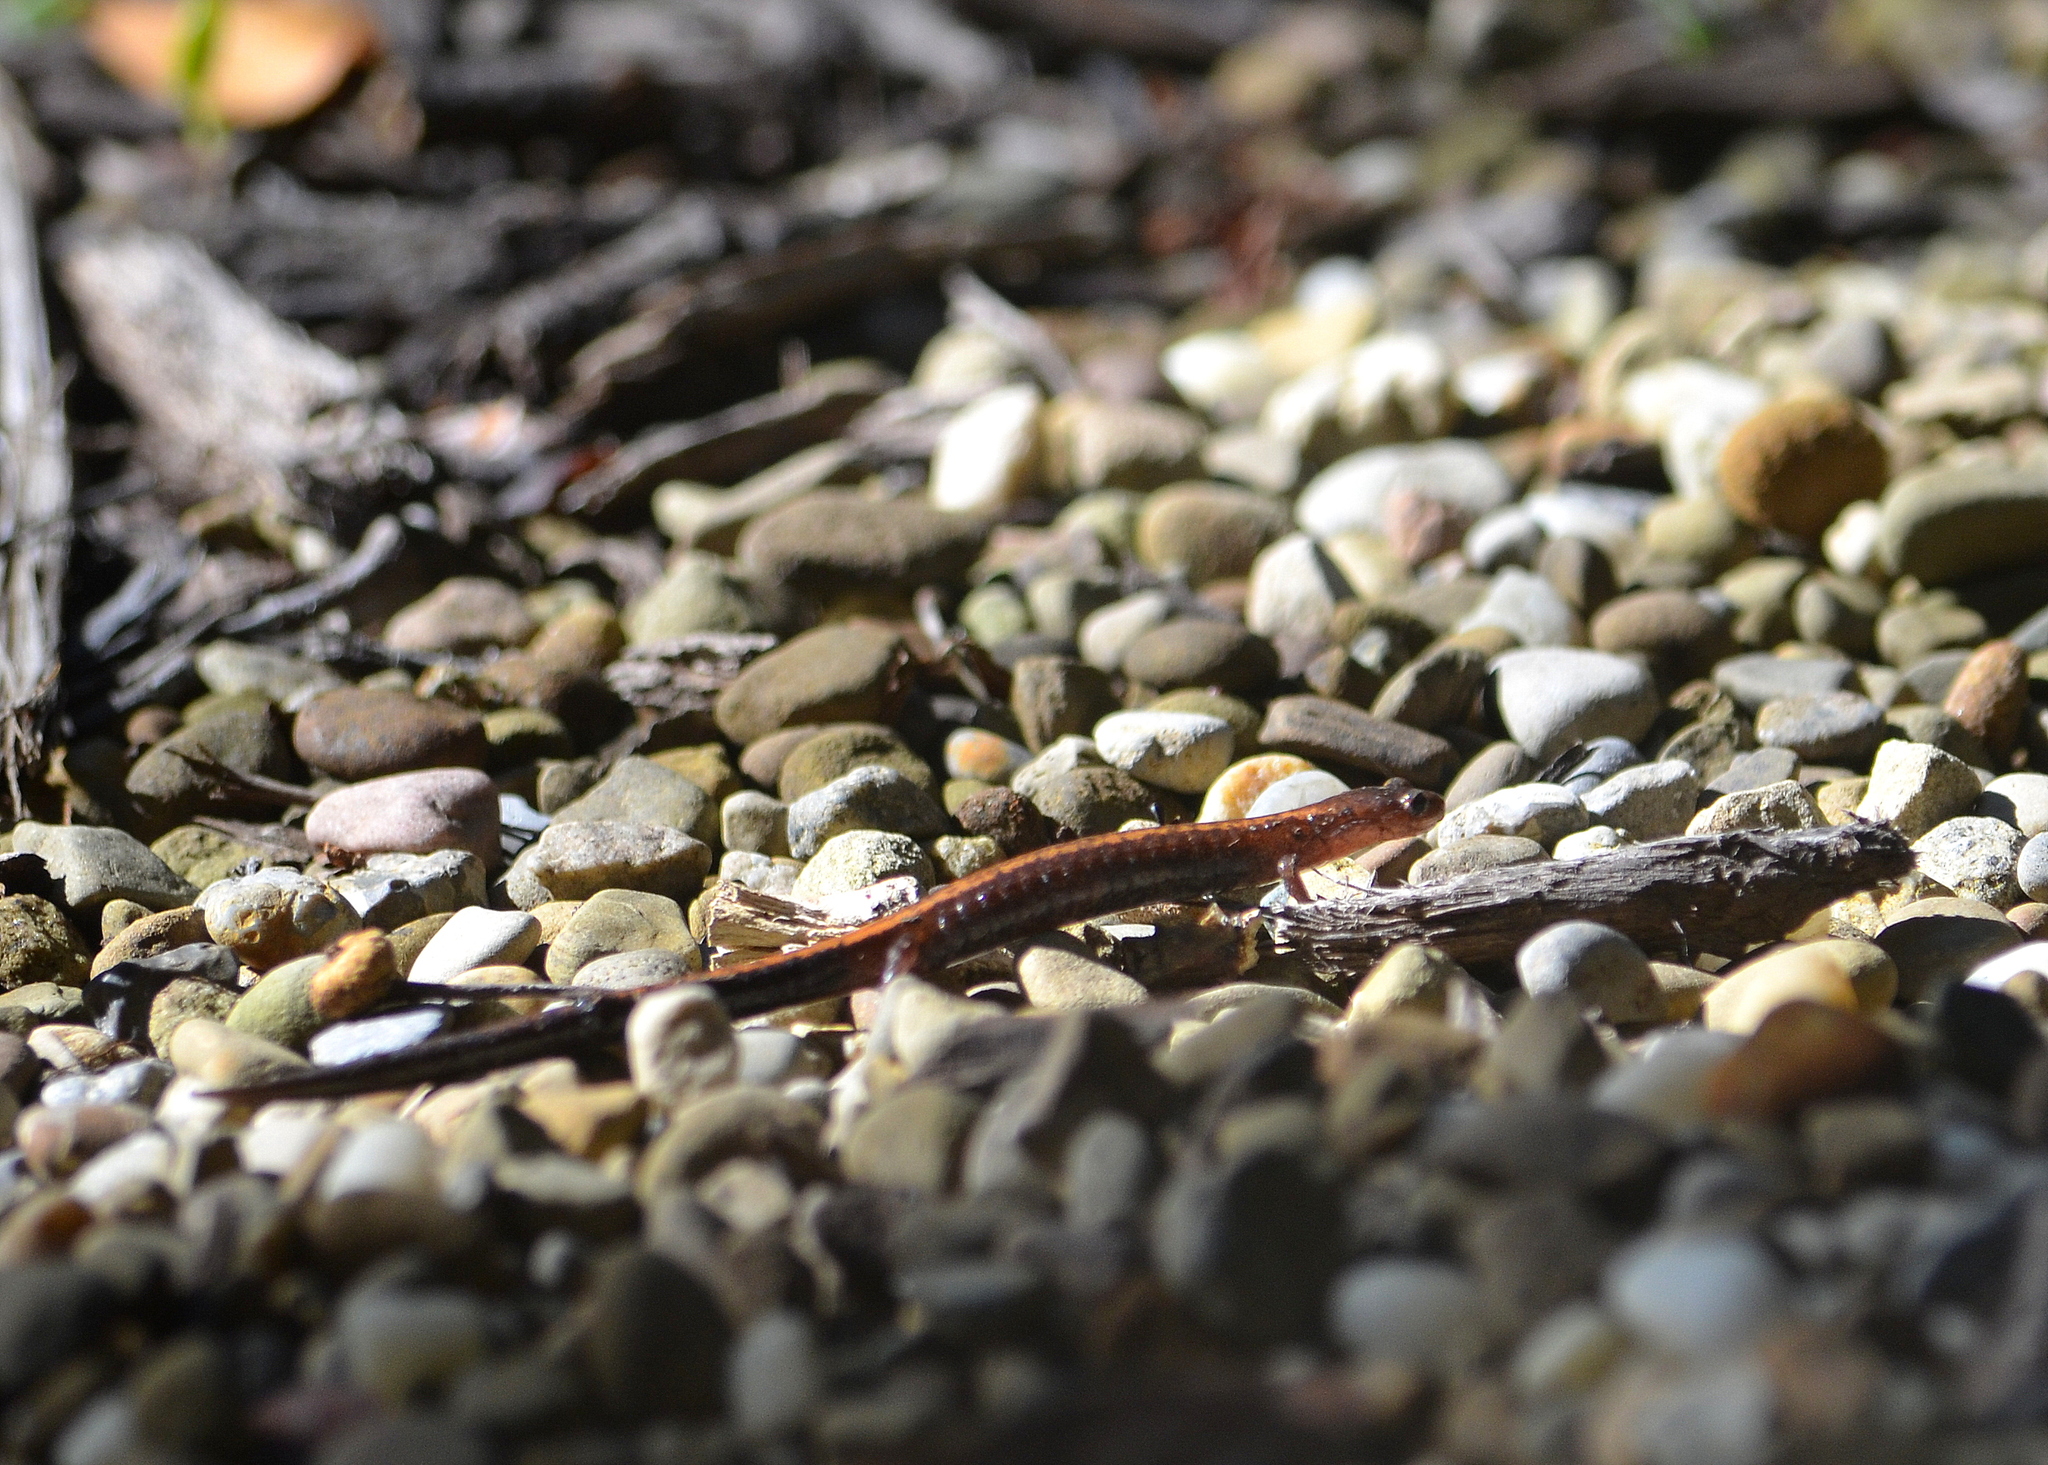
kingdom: Animalia
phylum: Chordata
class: Amphibia
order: Caudata
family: Plethodontidae
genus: Plethodon
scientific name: Plethodon cinereus
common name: Redback salamander
